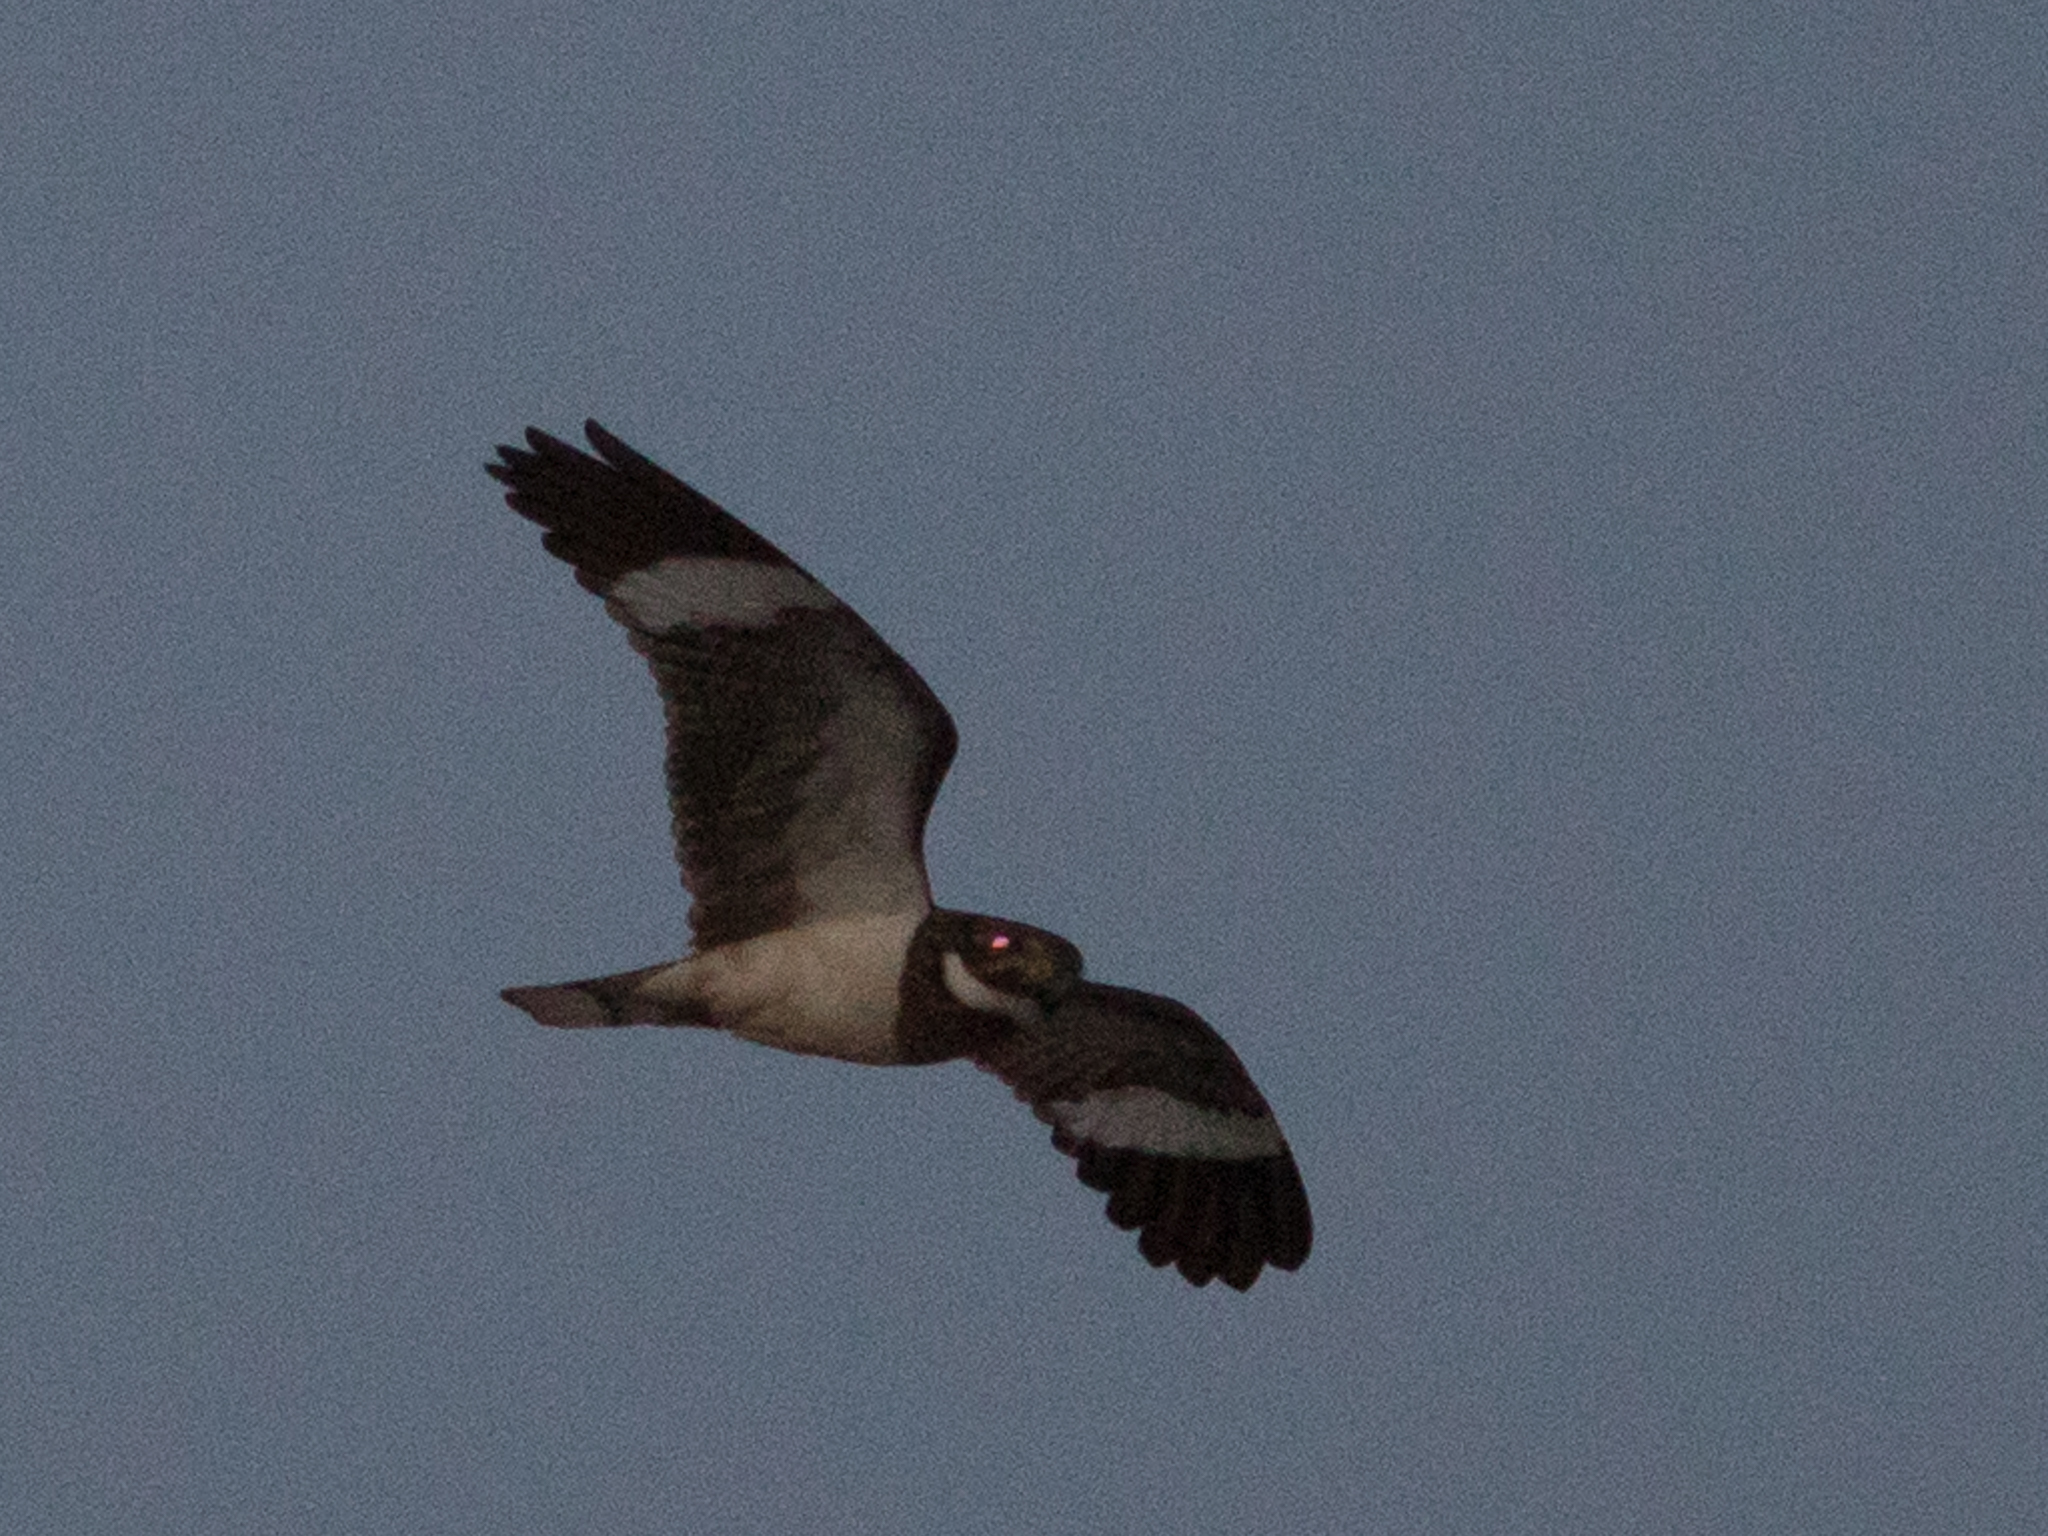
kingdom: Animalia
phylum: Chordata
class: Aves
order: Caprimulgiformes
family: Caprimulgidae
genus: Chordeiles
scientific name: Chordeiles nacunda
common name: Nacunda nighthawk
